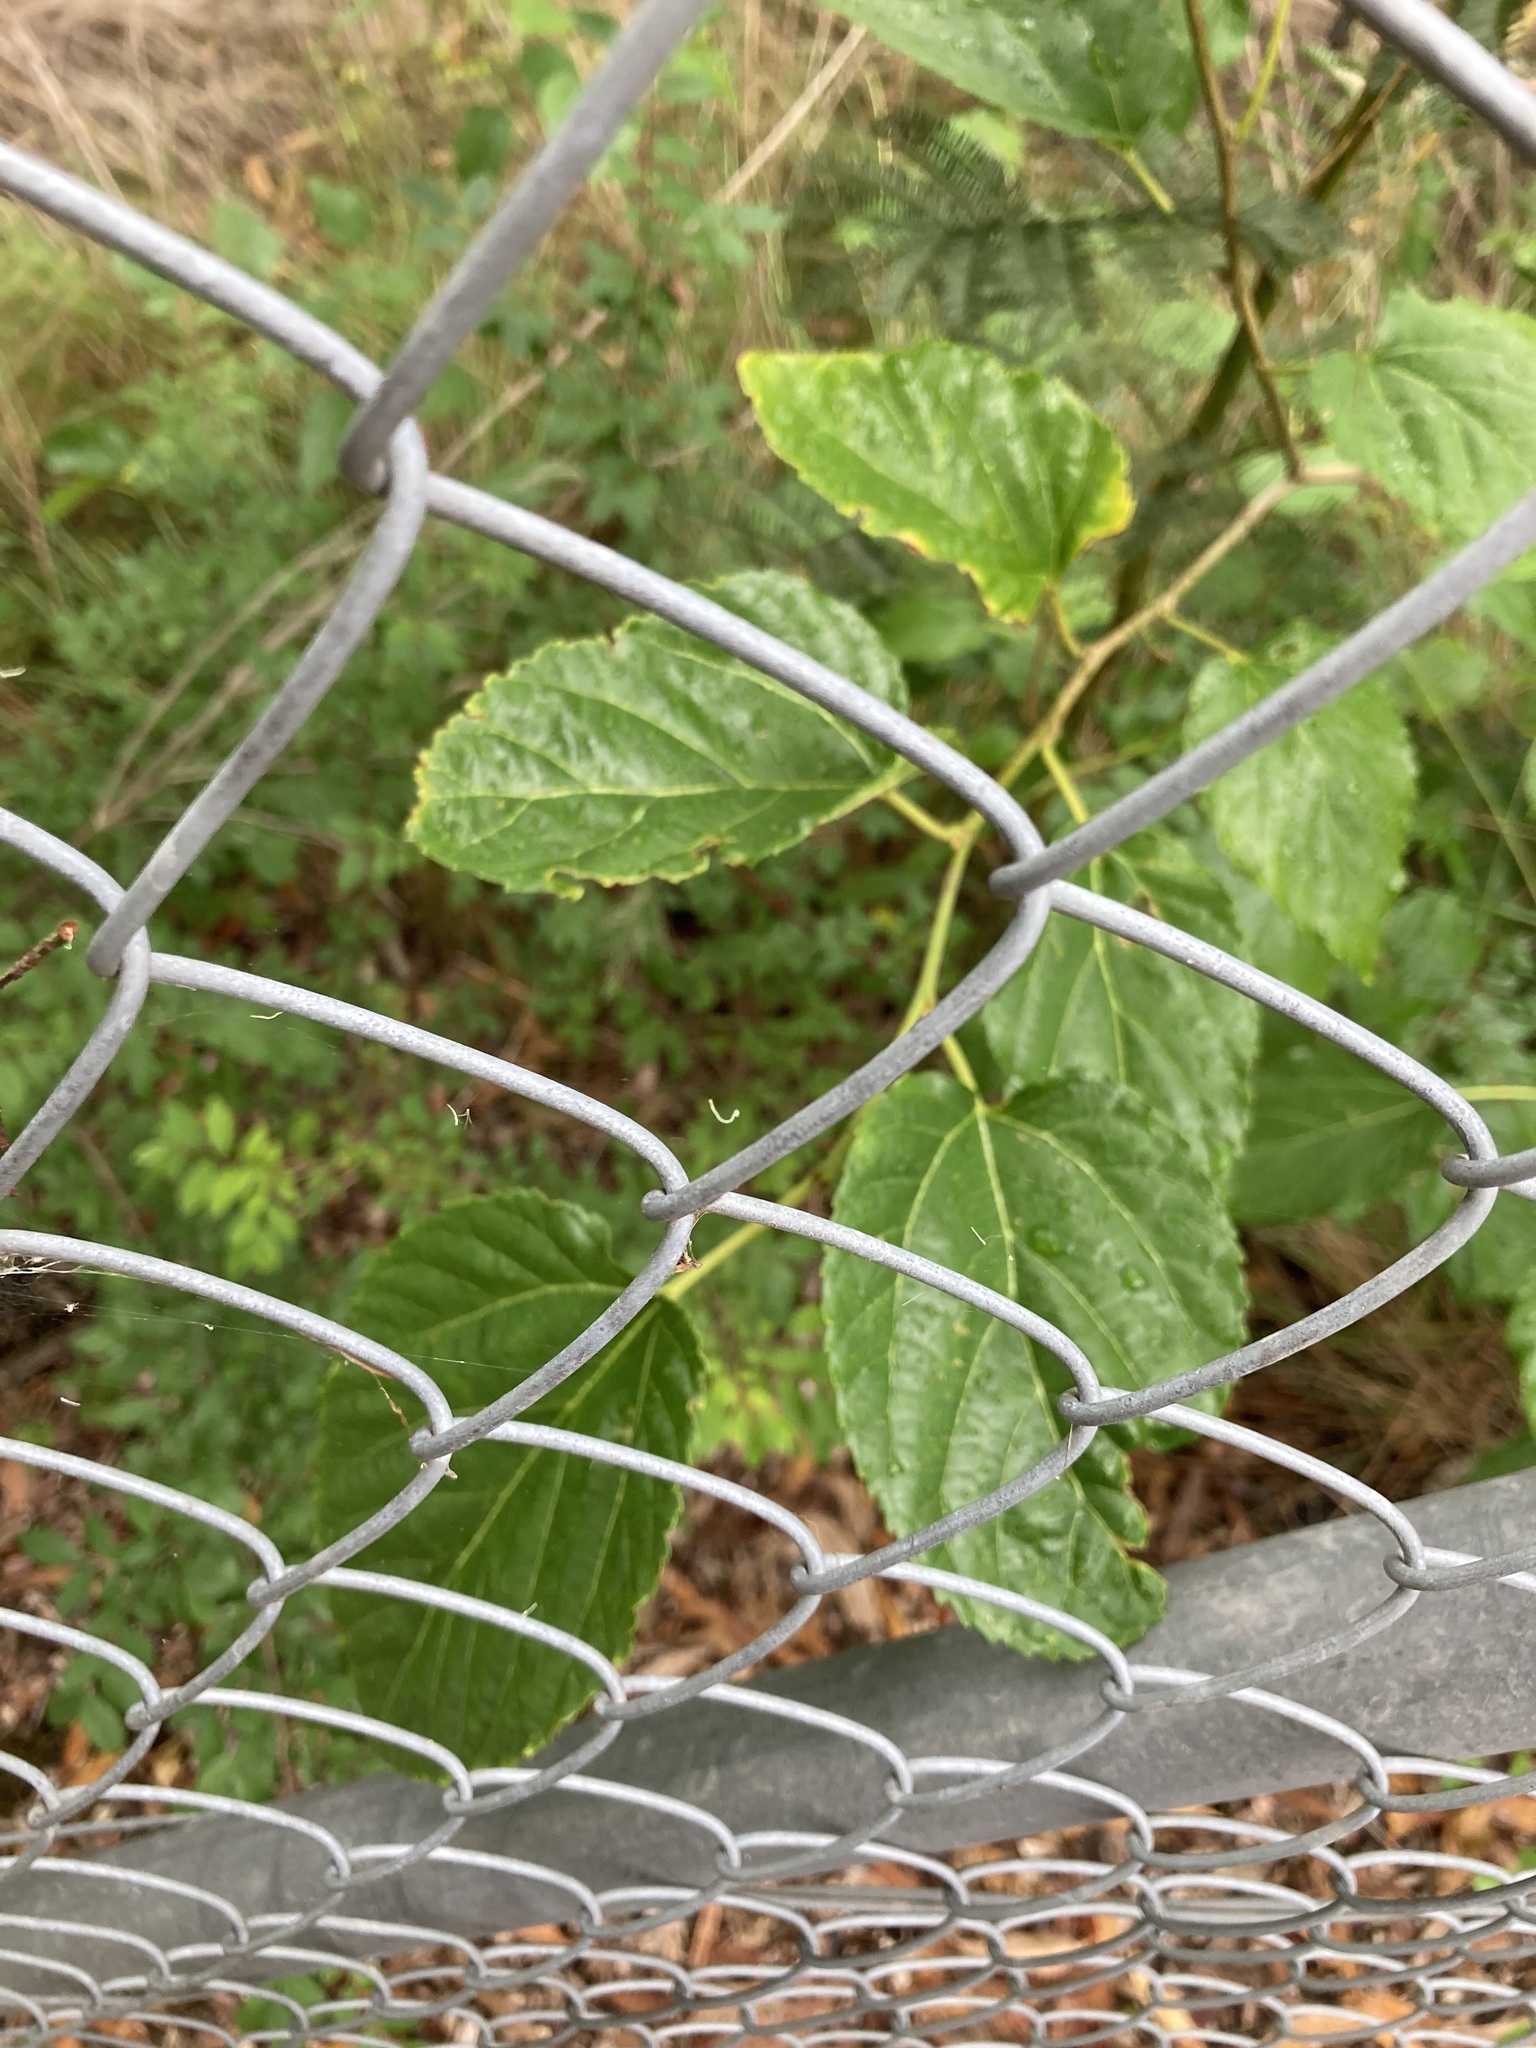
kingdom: Plantae
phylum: Tracheophyta
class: Magnoliopsida
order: Rosales
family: Moraceae
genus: Morus
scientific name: Morus alba
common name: White mulberry
